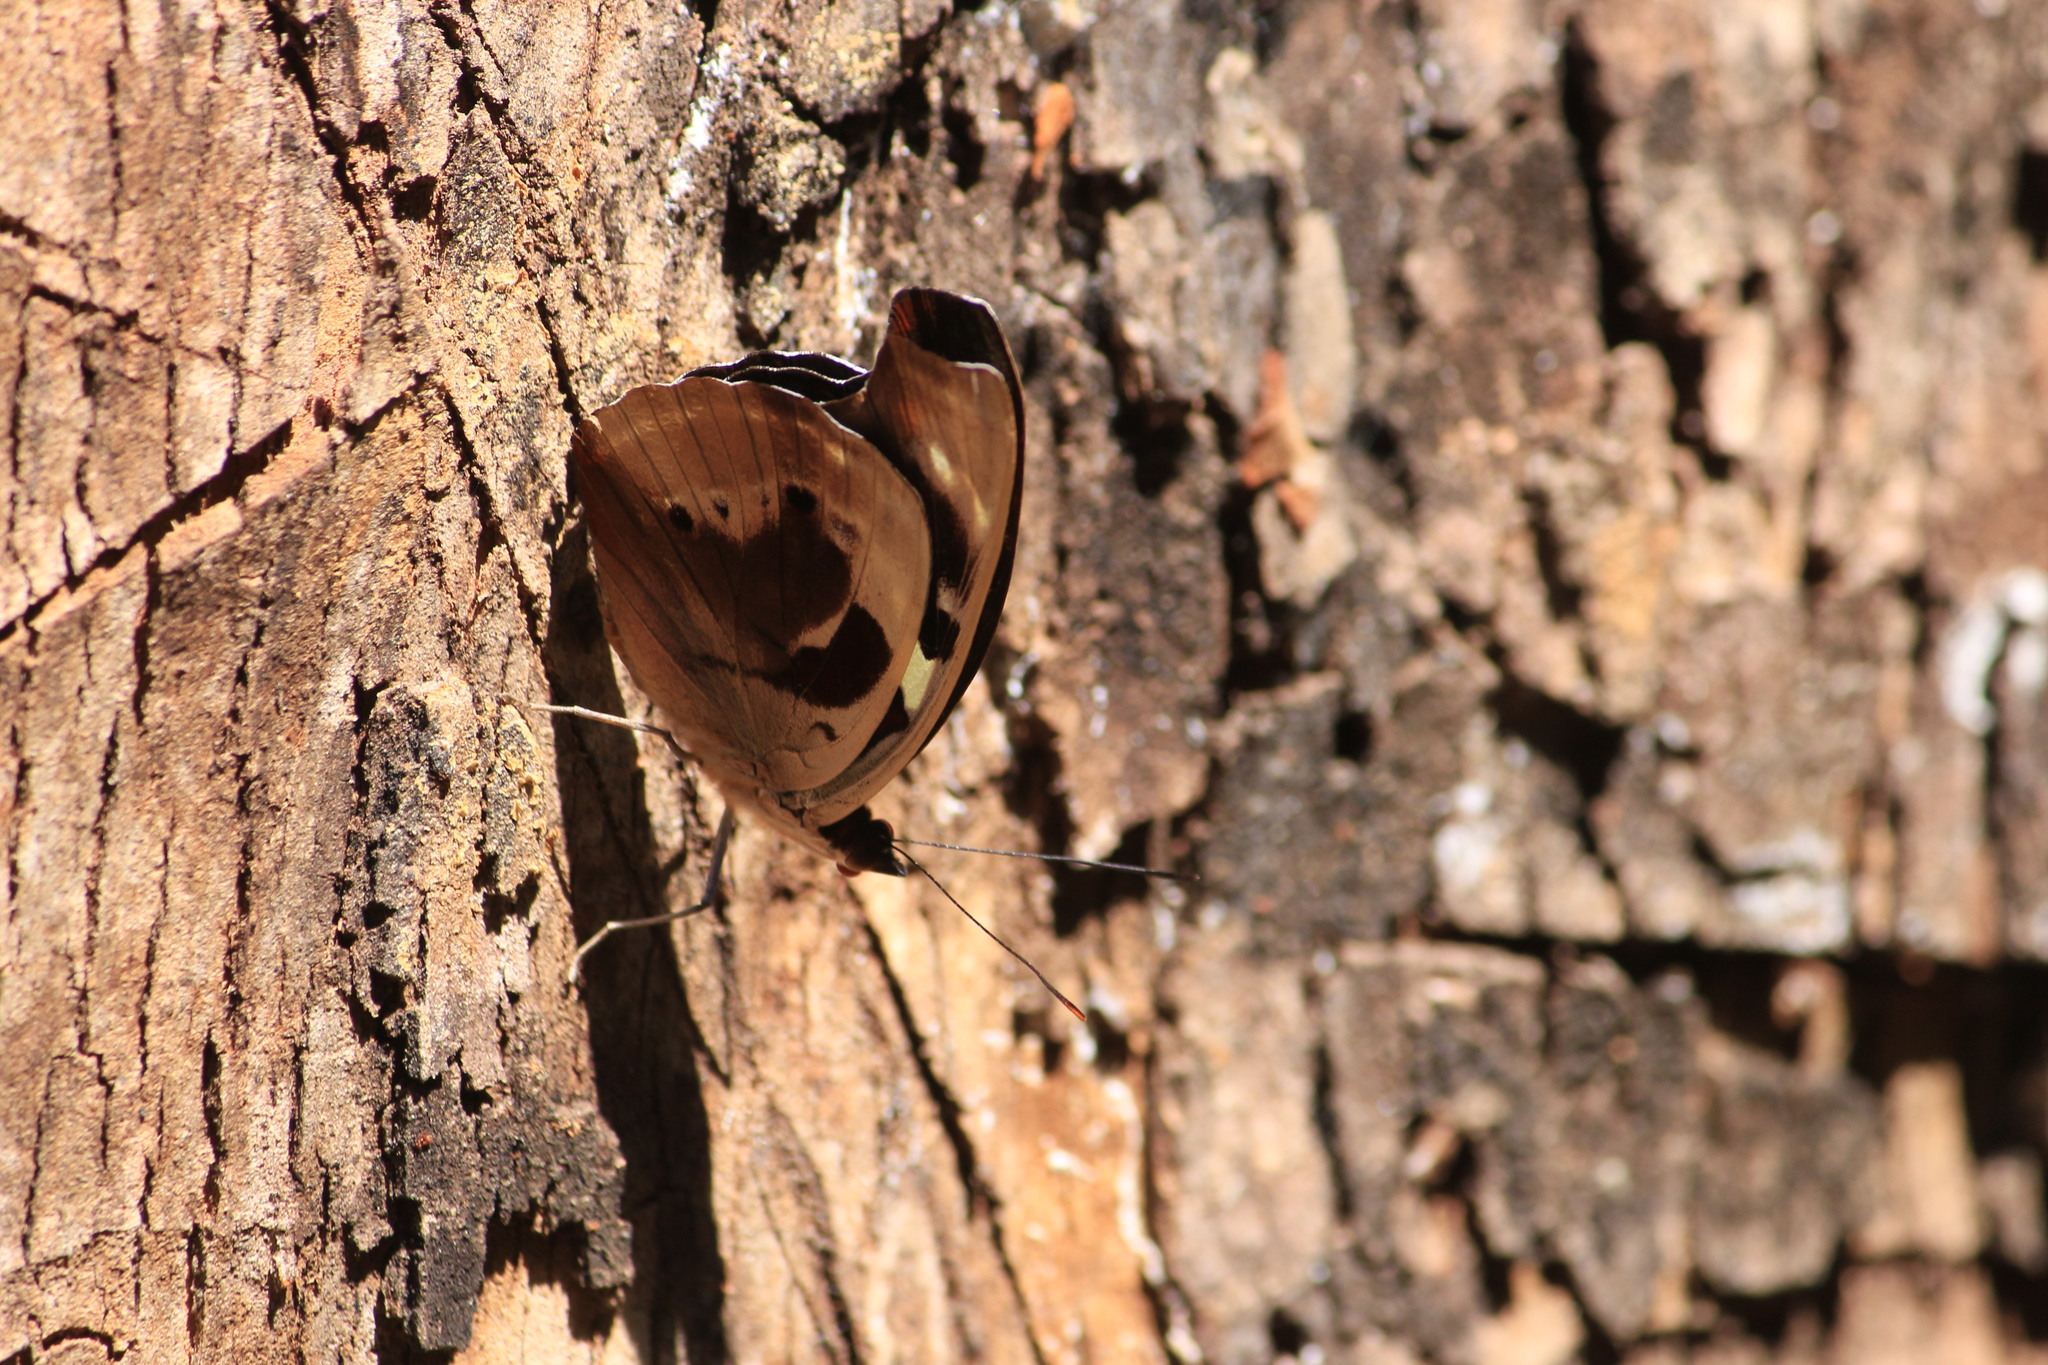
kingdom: Animalia
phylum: Arthropoda
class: Insecta
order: Lepidoptera
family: Nymphalidae
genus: Catonephele
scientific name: Catonephele numilia
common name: Blue-frosted banner
